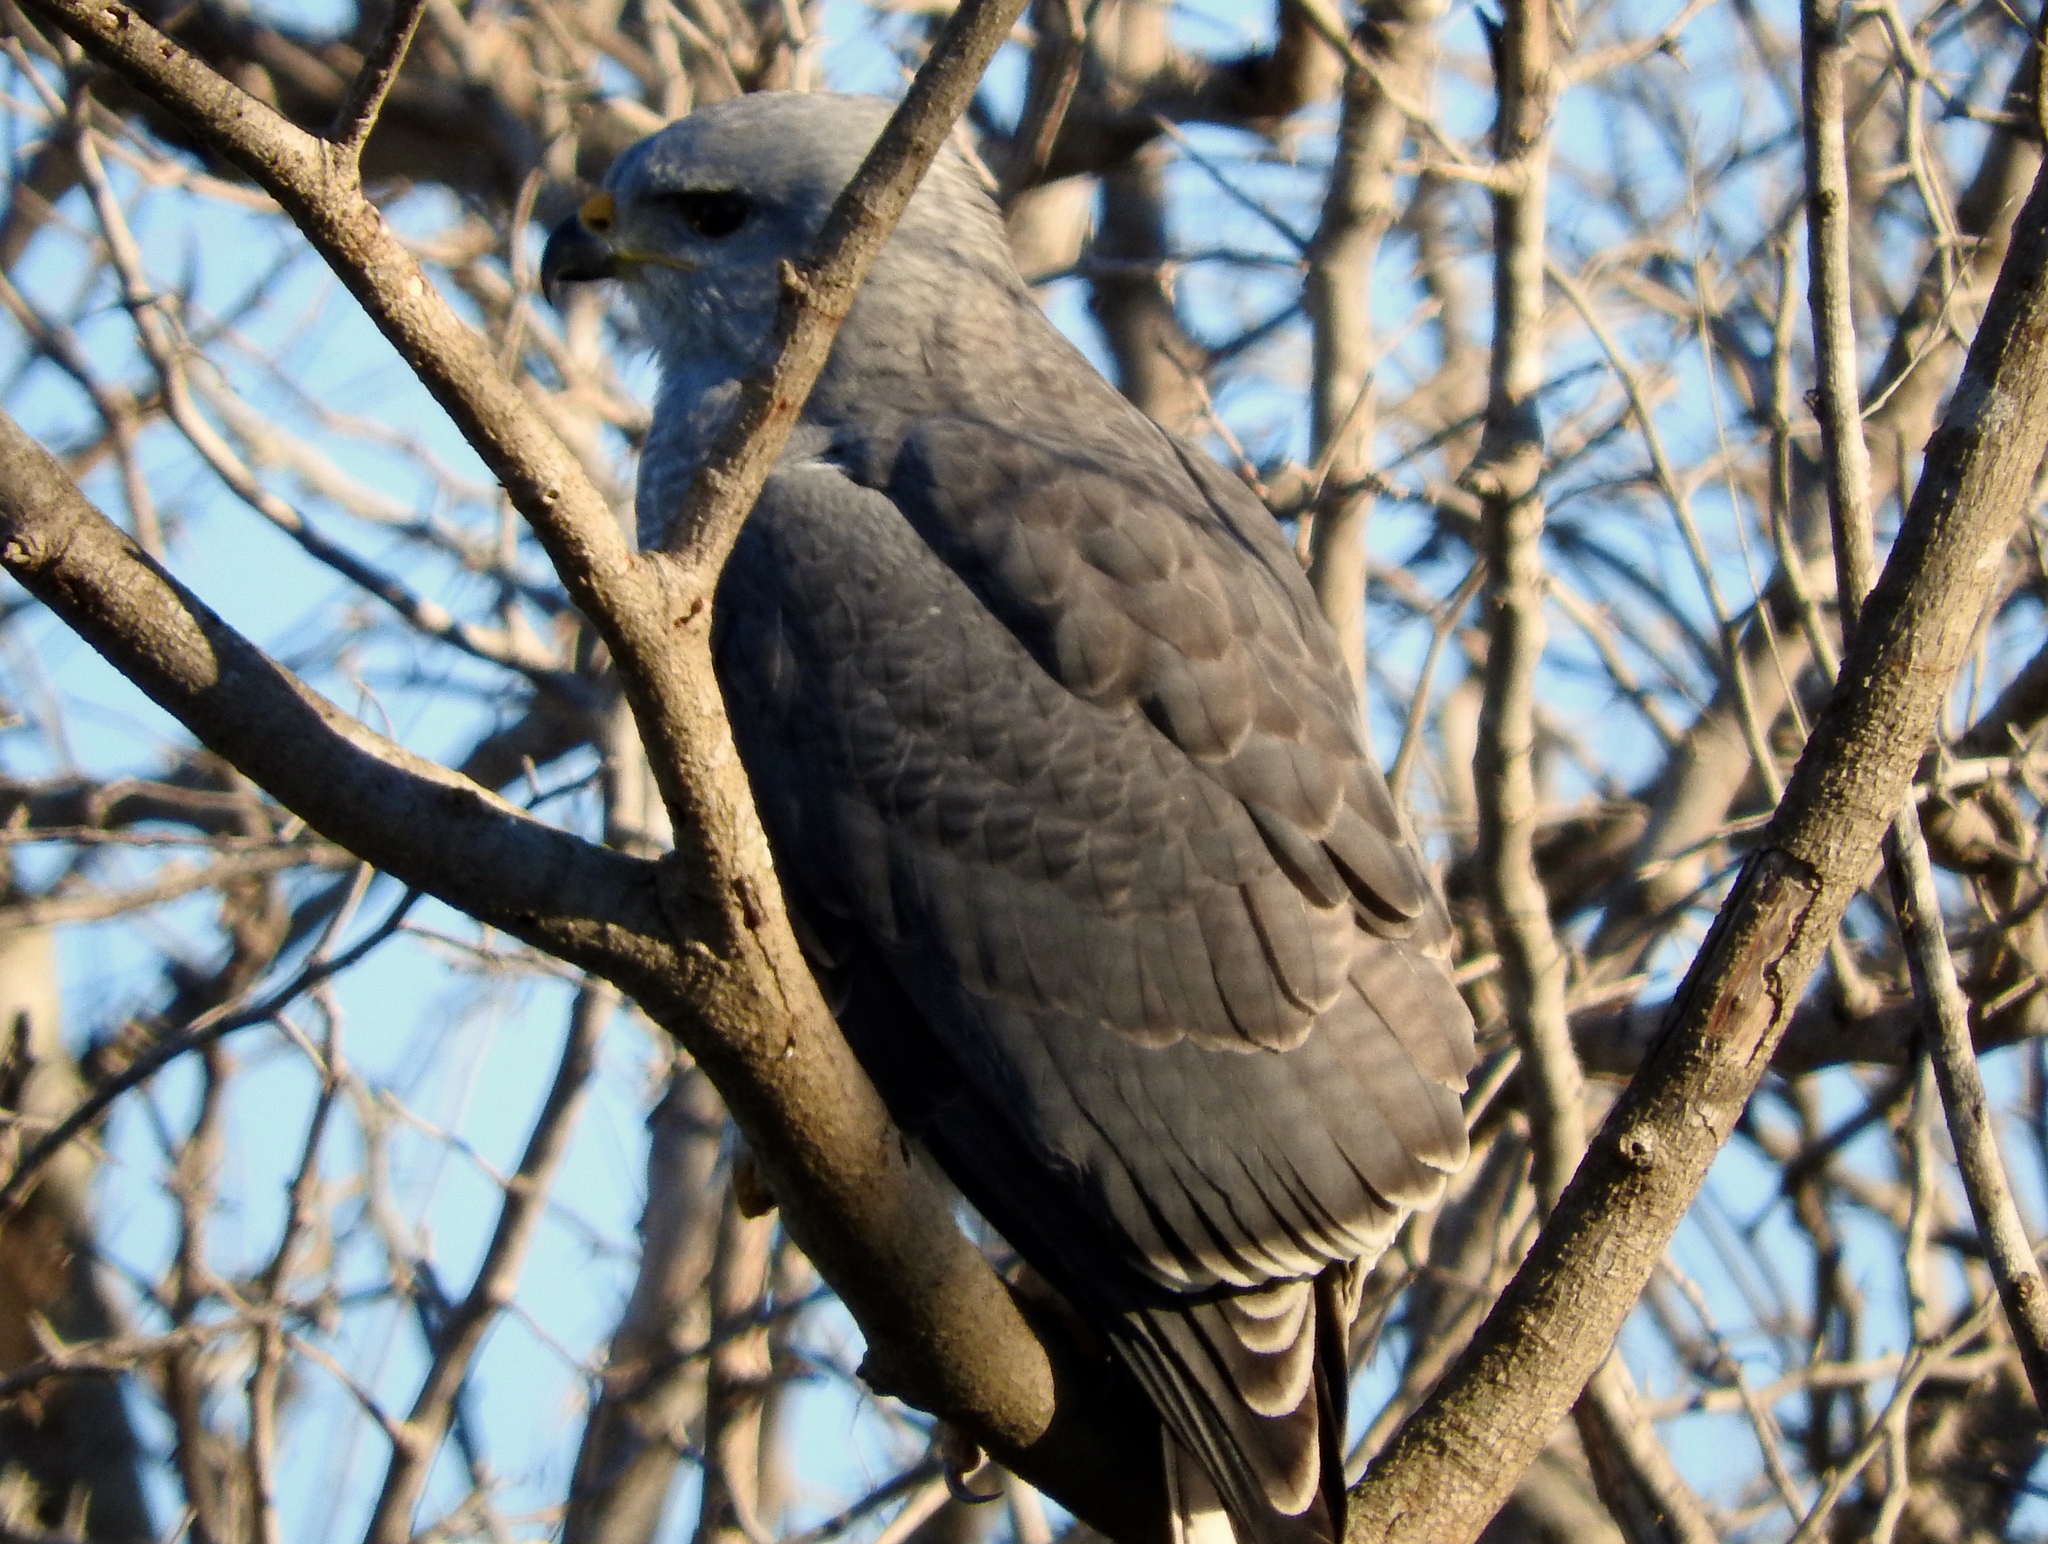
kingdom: Animalia
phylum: Chordata
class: Aves
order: Accipitriformes
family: Accipitridae
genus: Buteo
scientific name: Buteo nitidus
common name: Grey-lined hawk
